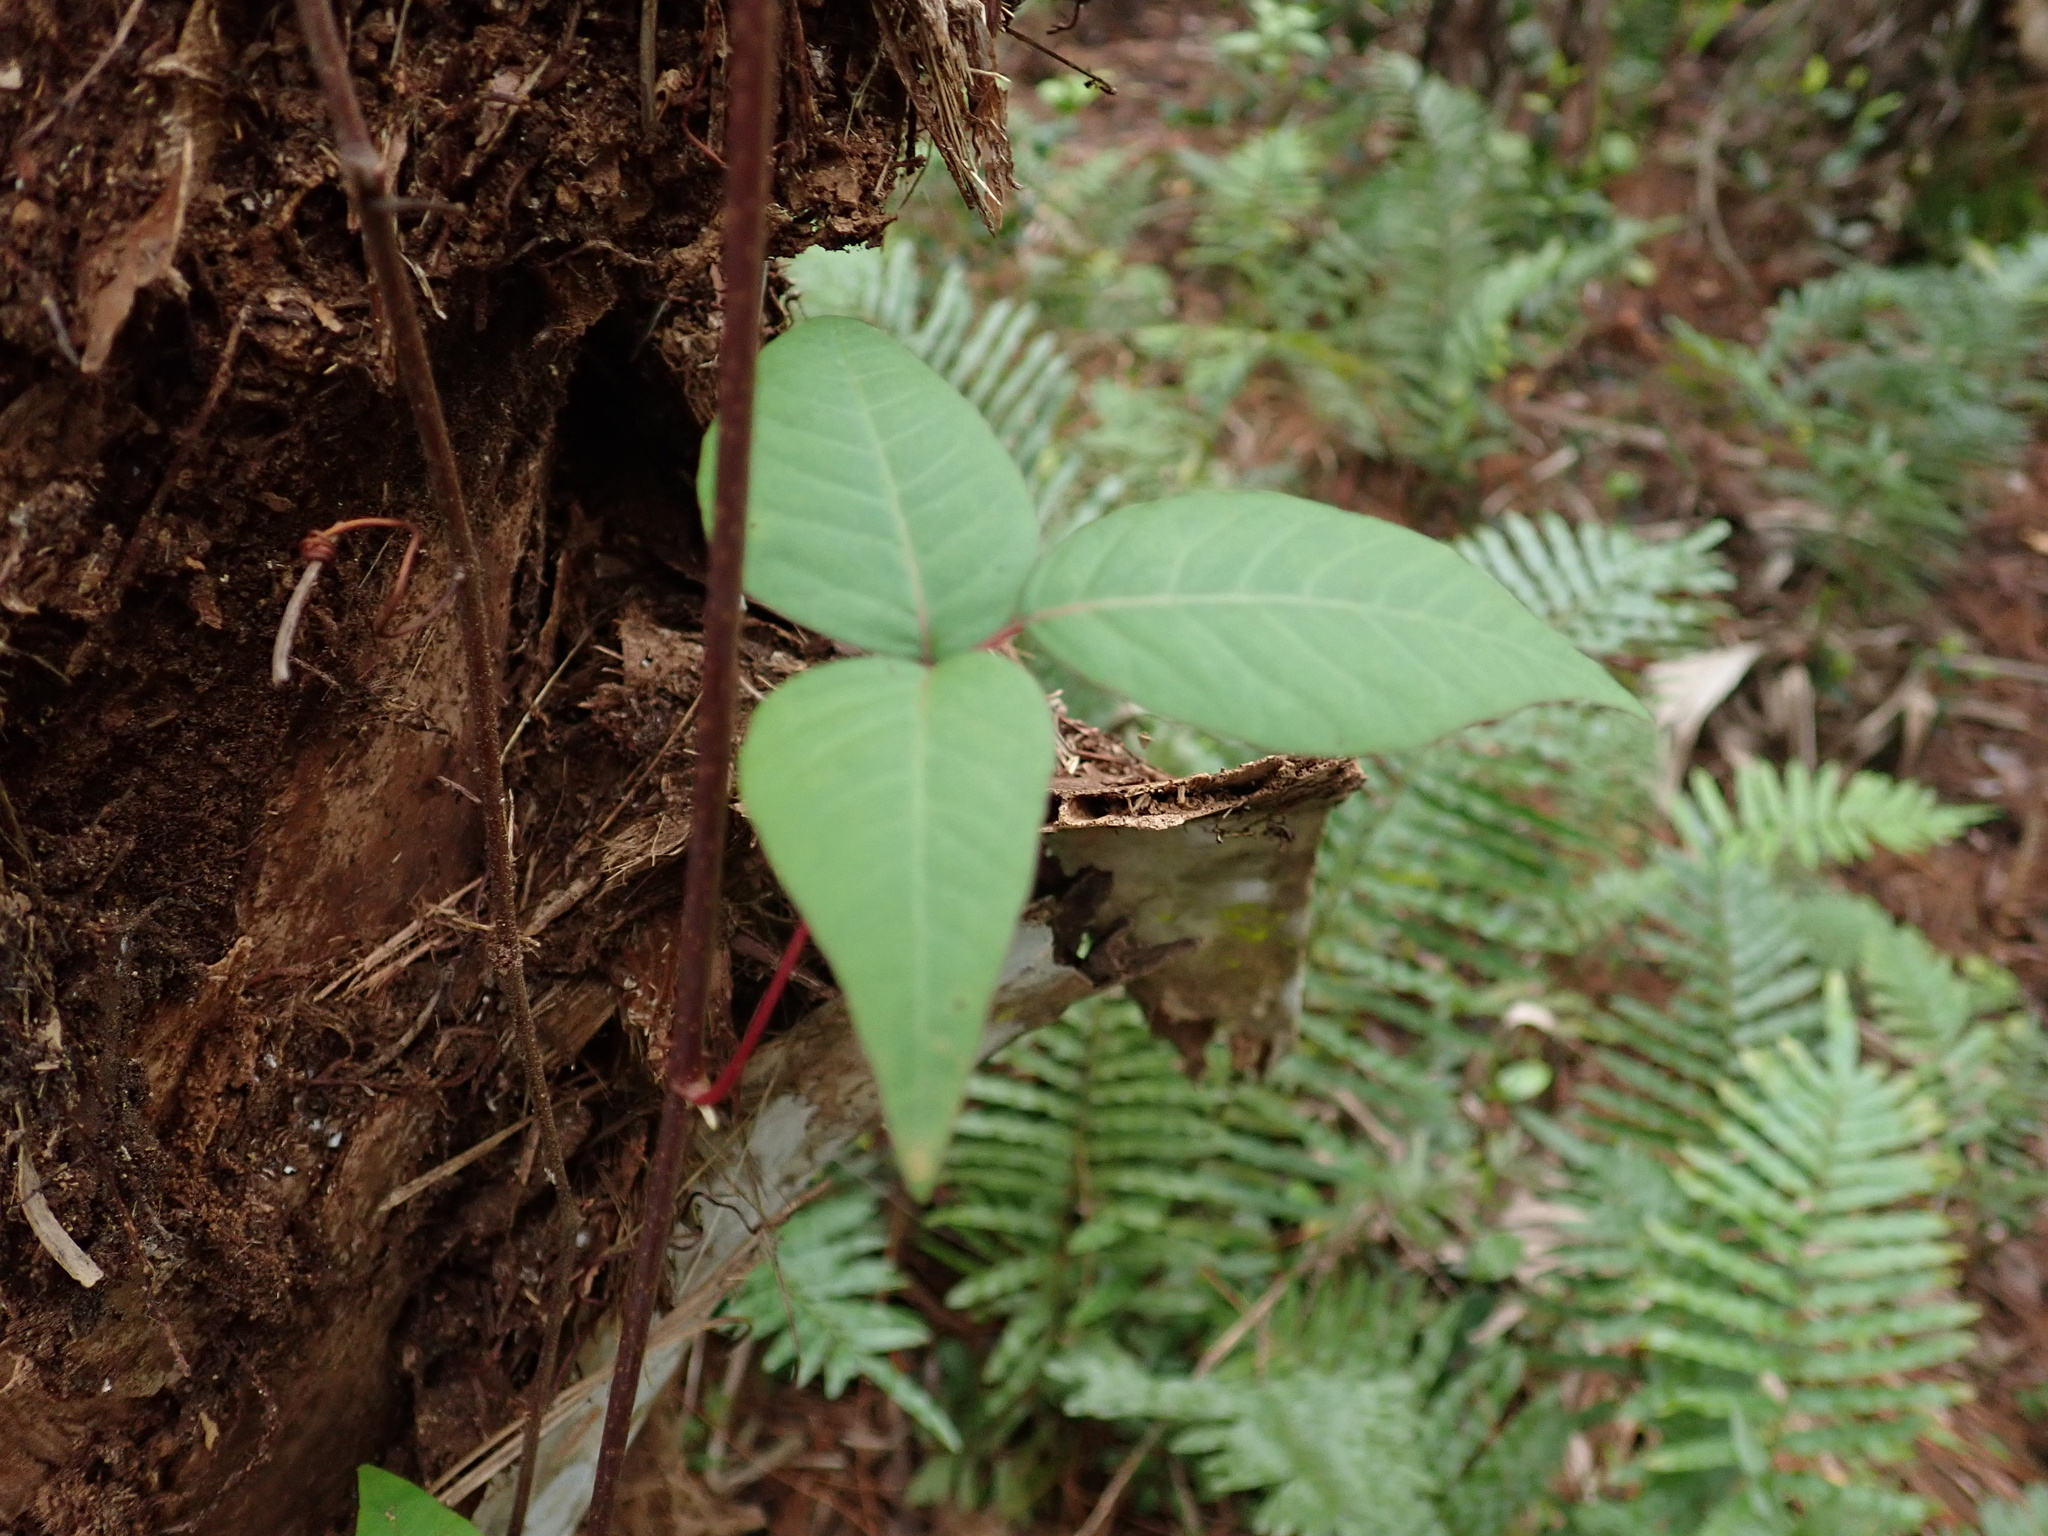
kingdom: Plantae
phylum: Tracheophyta
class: Magnoliopsida
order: Sapindales
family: Anacardiaceae
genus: Toxicodendron
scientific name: Toxicodendron radicans
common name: Poison ivy
